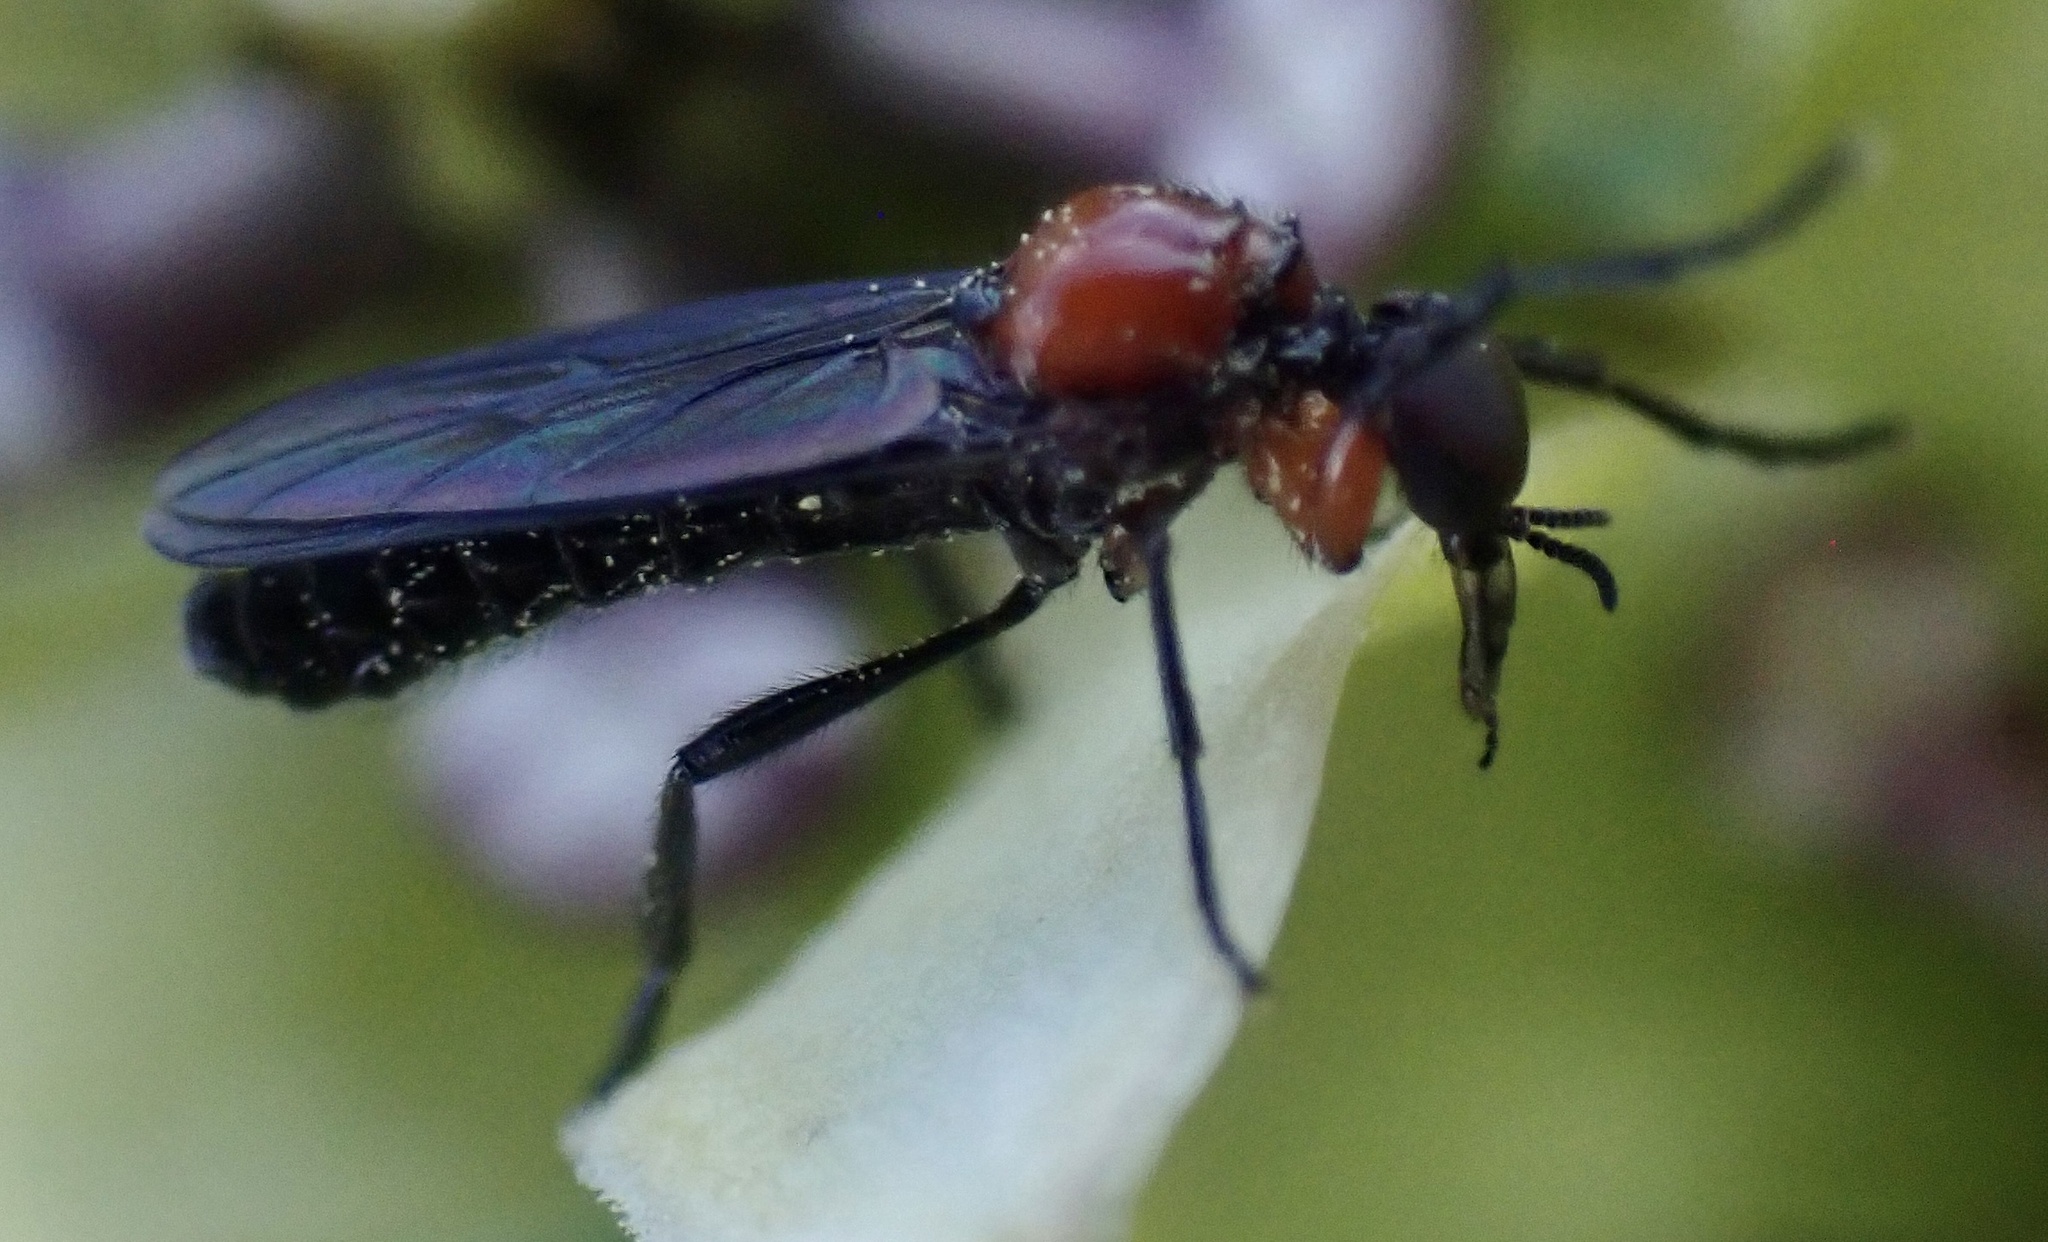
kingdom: Animalia
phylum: Arthropoda
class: Insecta
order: Diptera
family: Bibionidae
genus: Dilophus
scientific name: Dilophus spinipes
